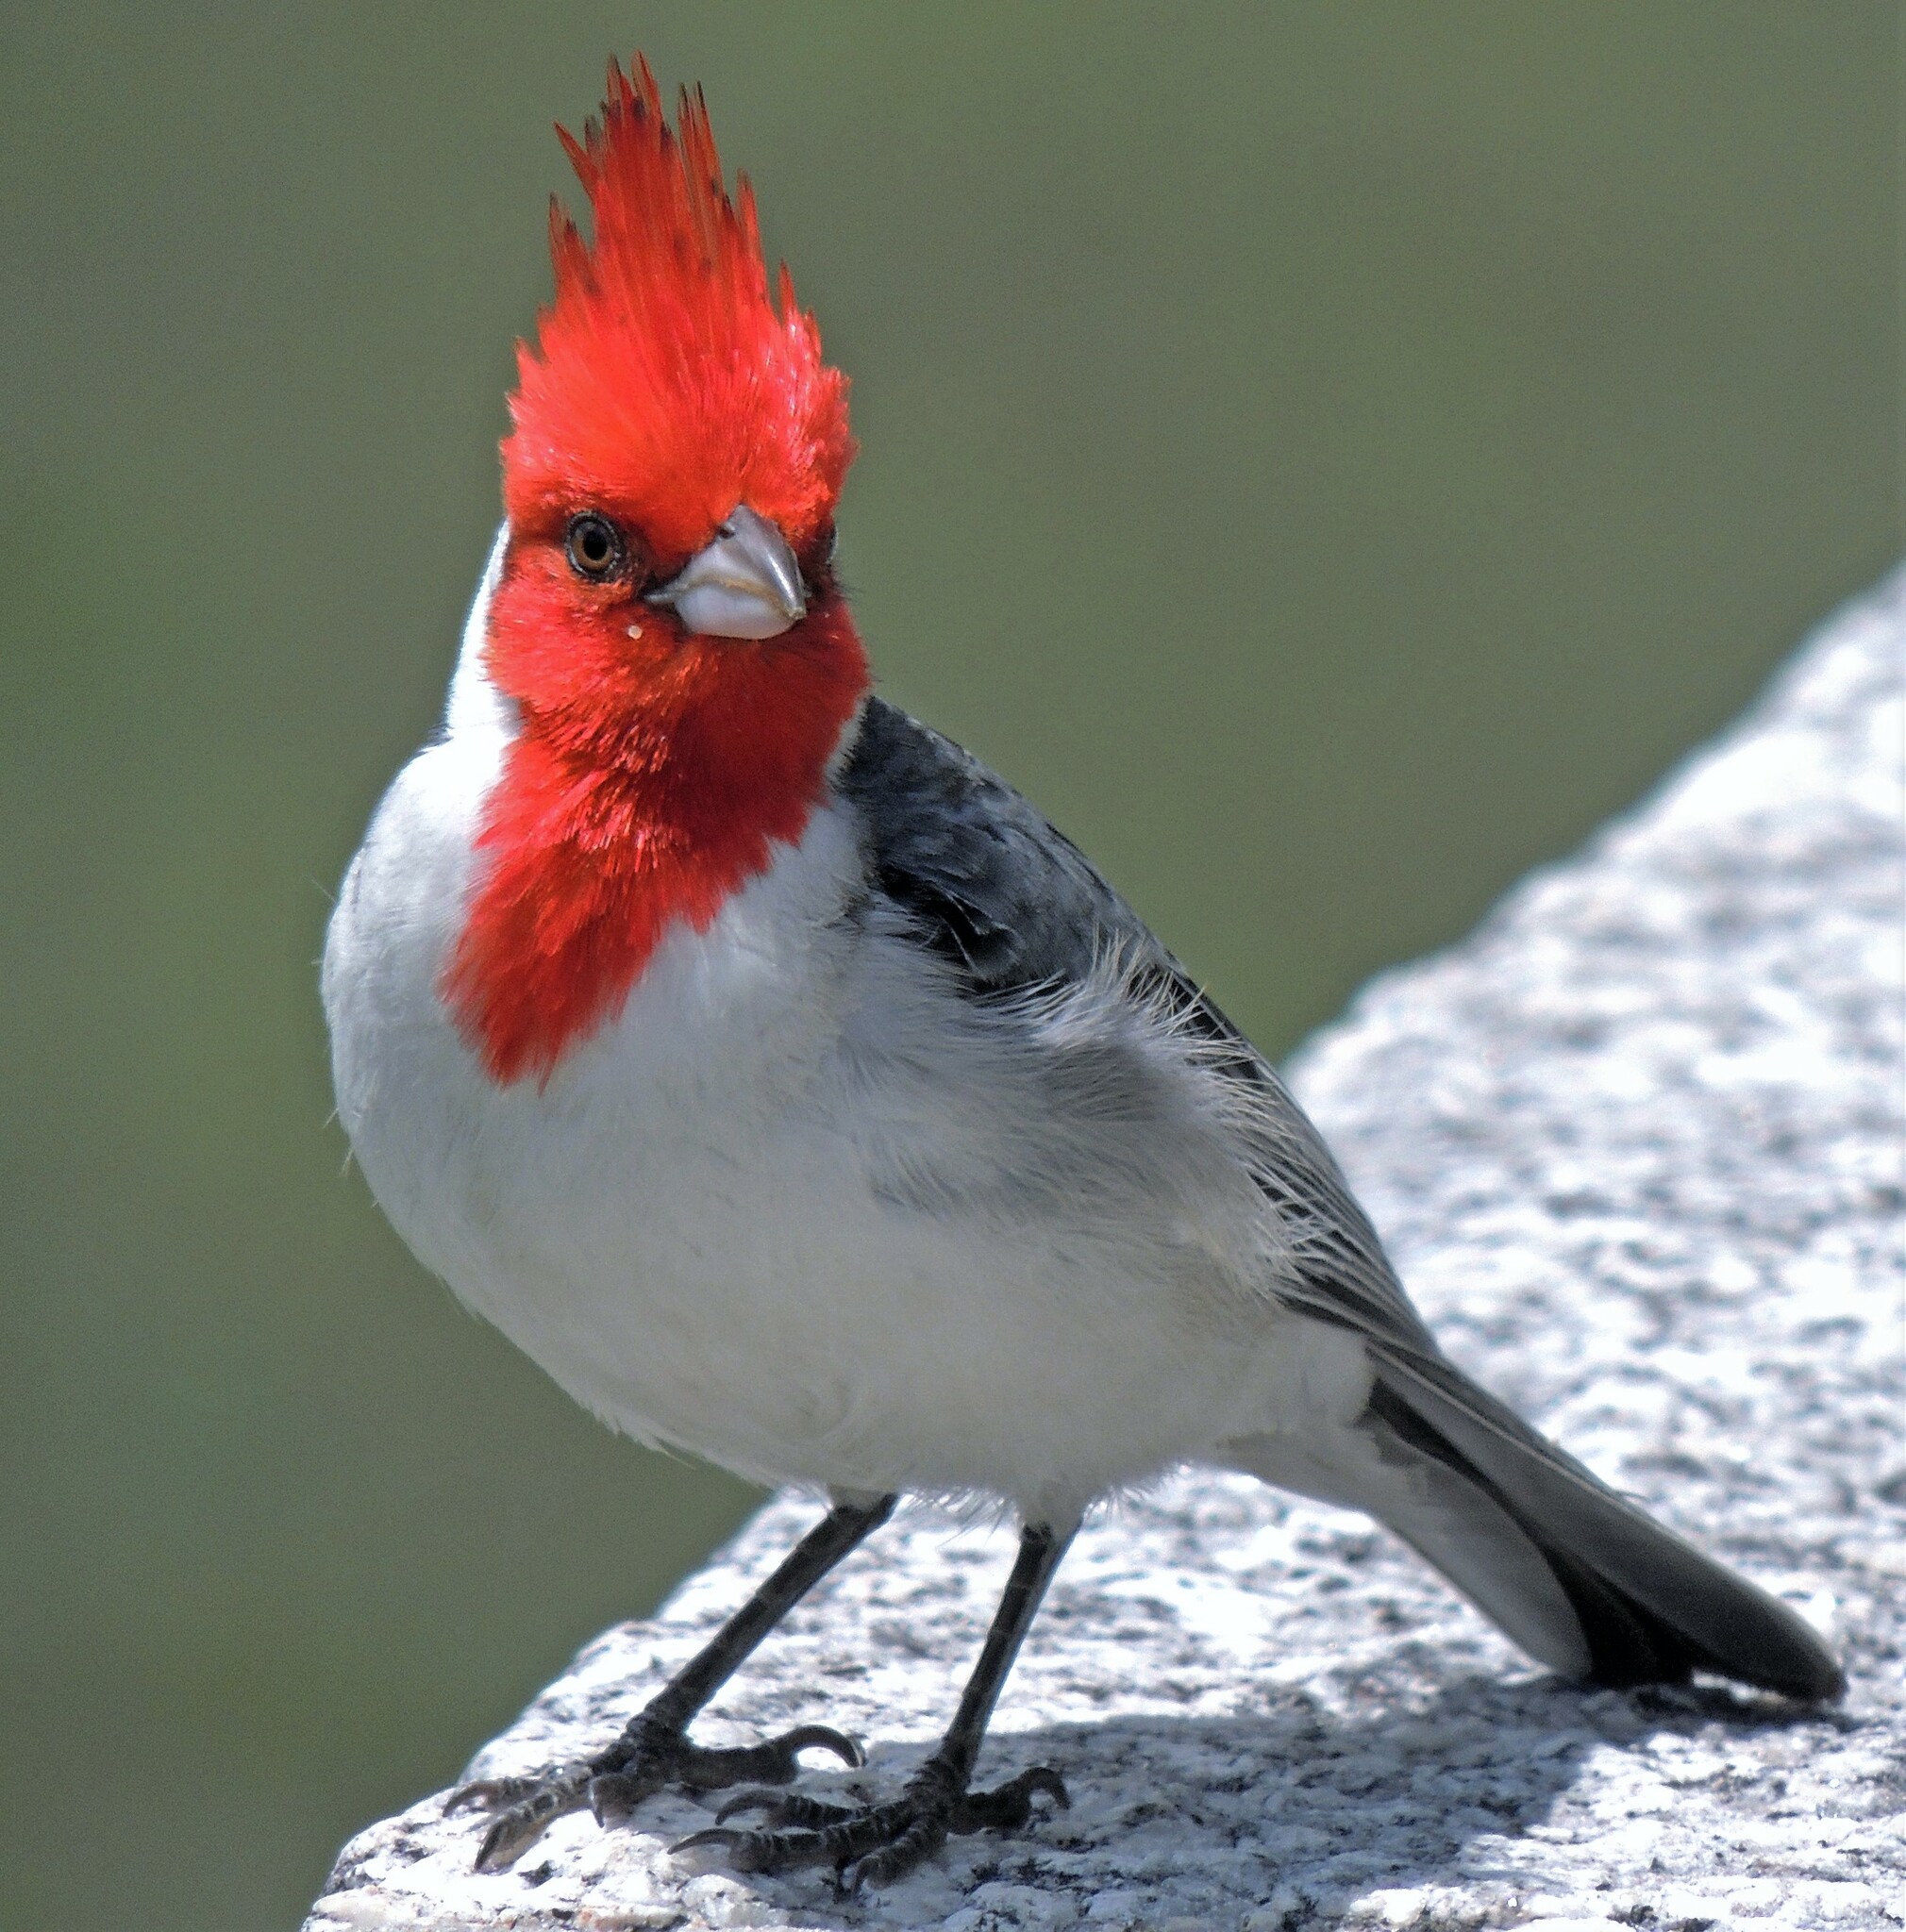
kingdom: Animalia
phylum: Chordata
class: Aves
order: Passeriformes
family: Thraupidae
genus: Paroaria
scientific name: Paroaria coronata
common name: Red-crested cardinal
